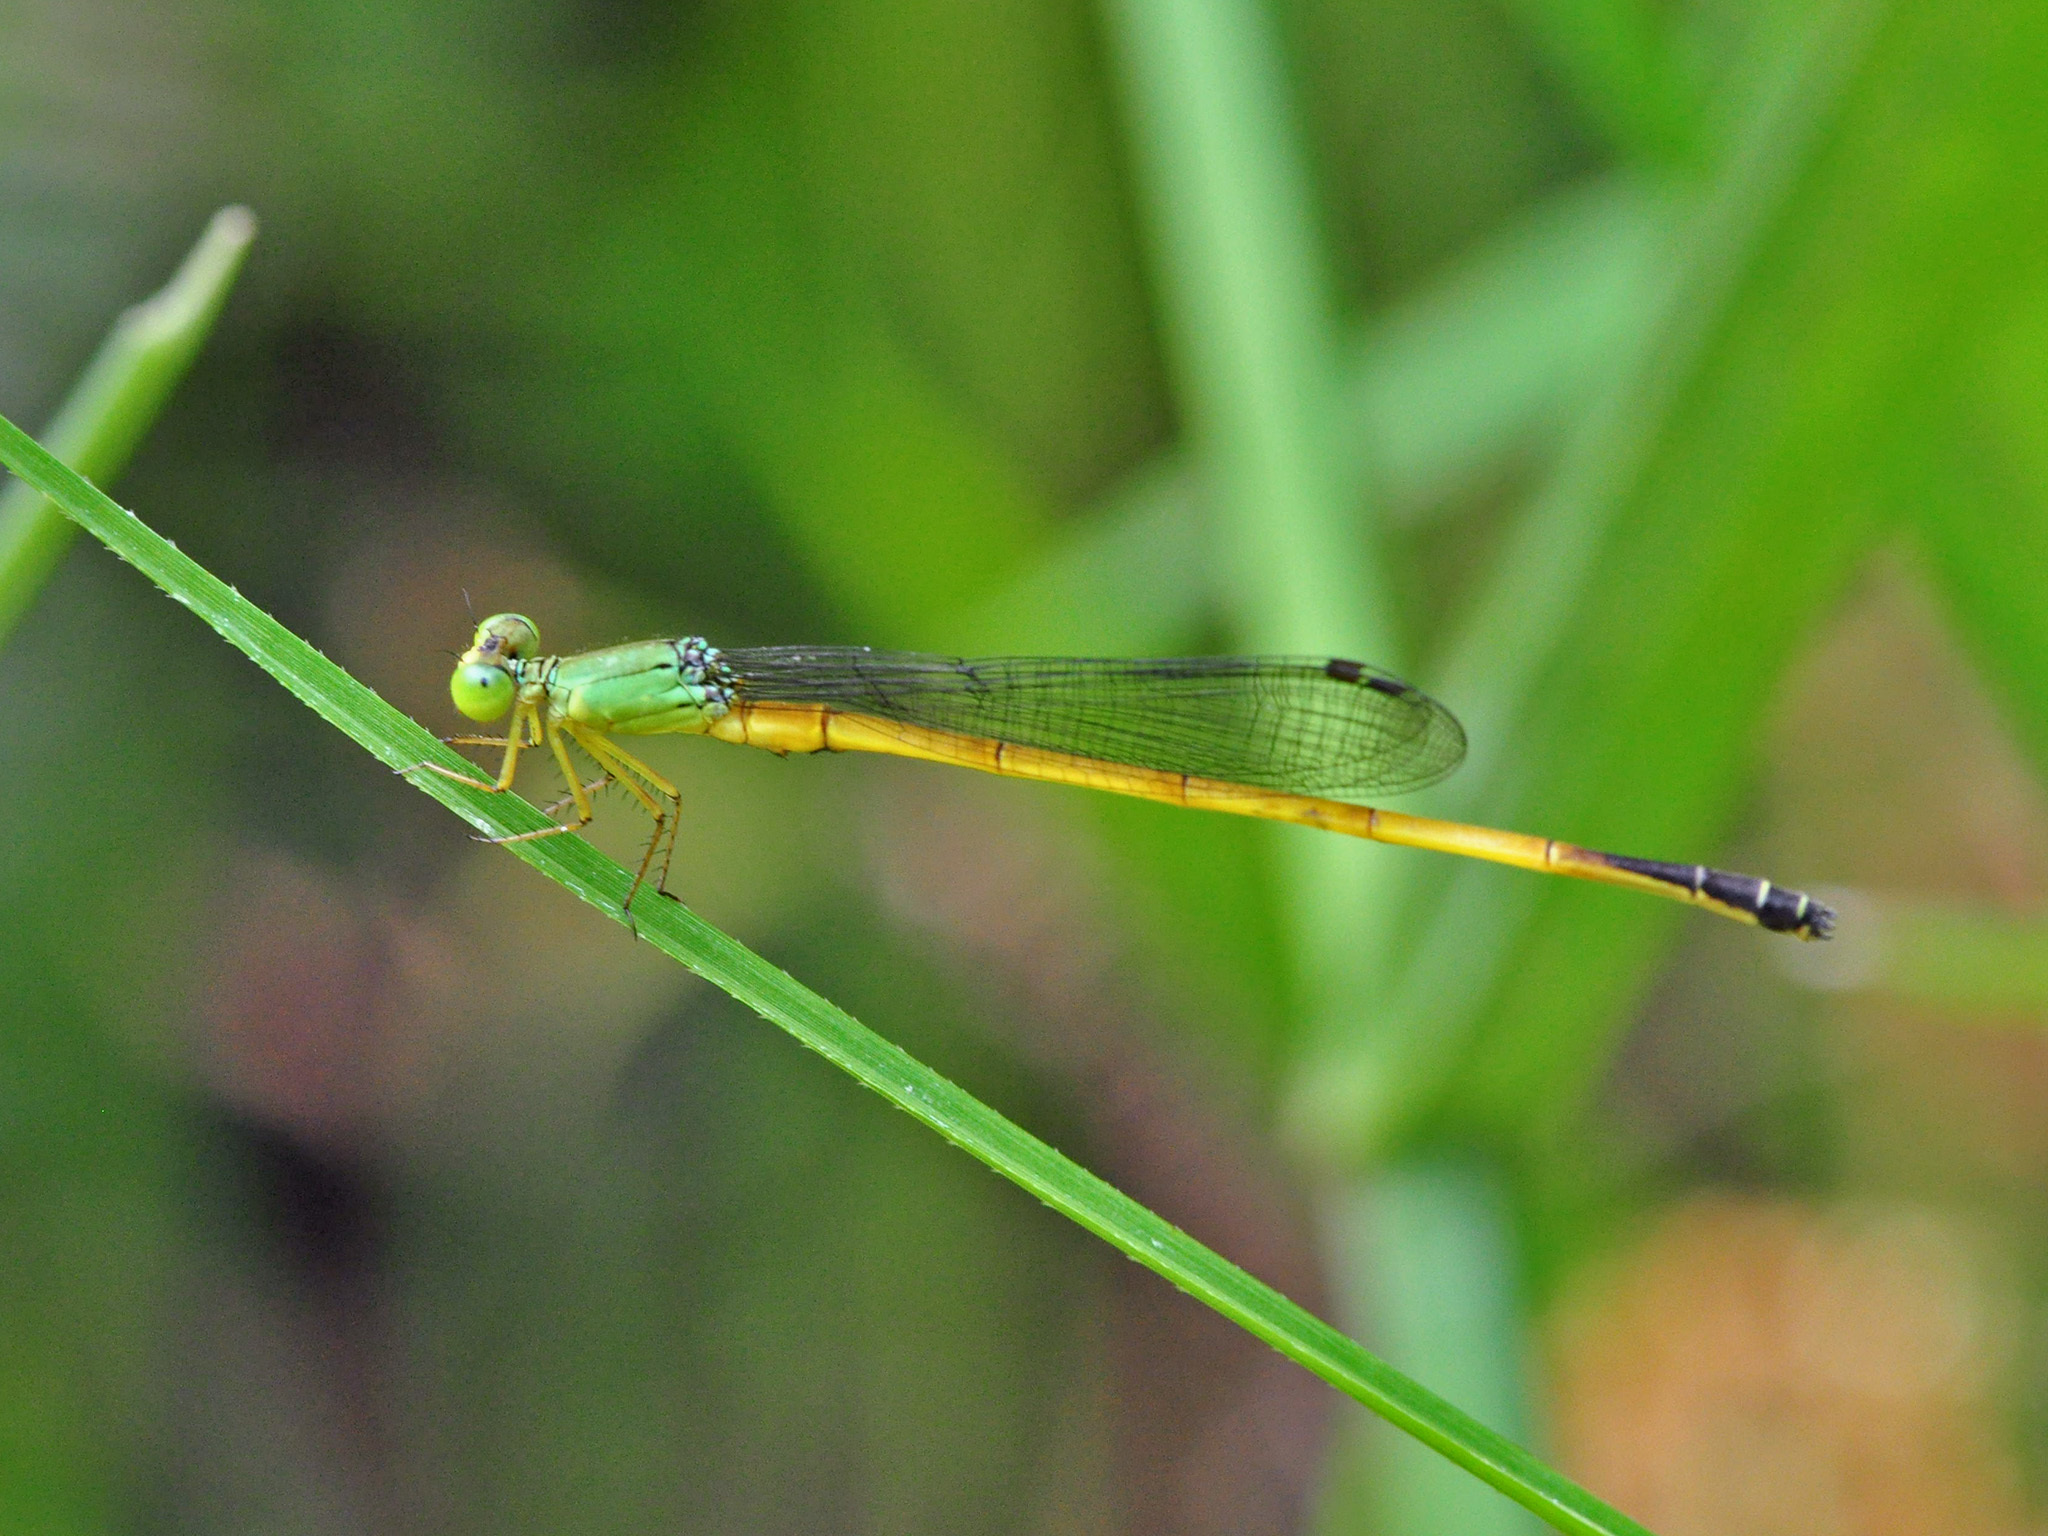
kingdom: Animalia
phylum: Arthropoda
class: Insecta
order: Odonata
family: Coenagrionidae
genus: Ceriagrion
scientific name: Ceriagrion fallax
